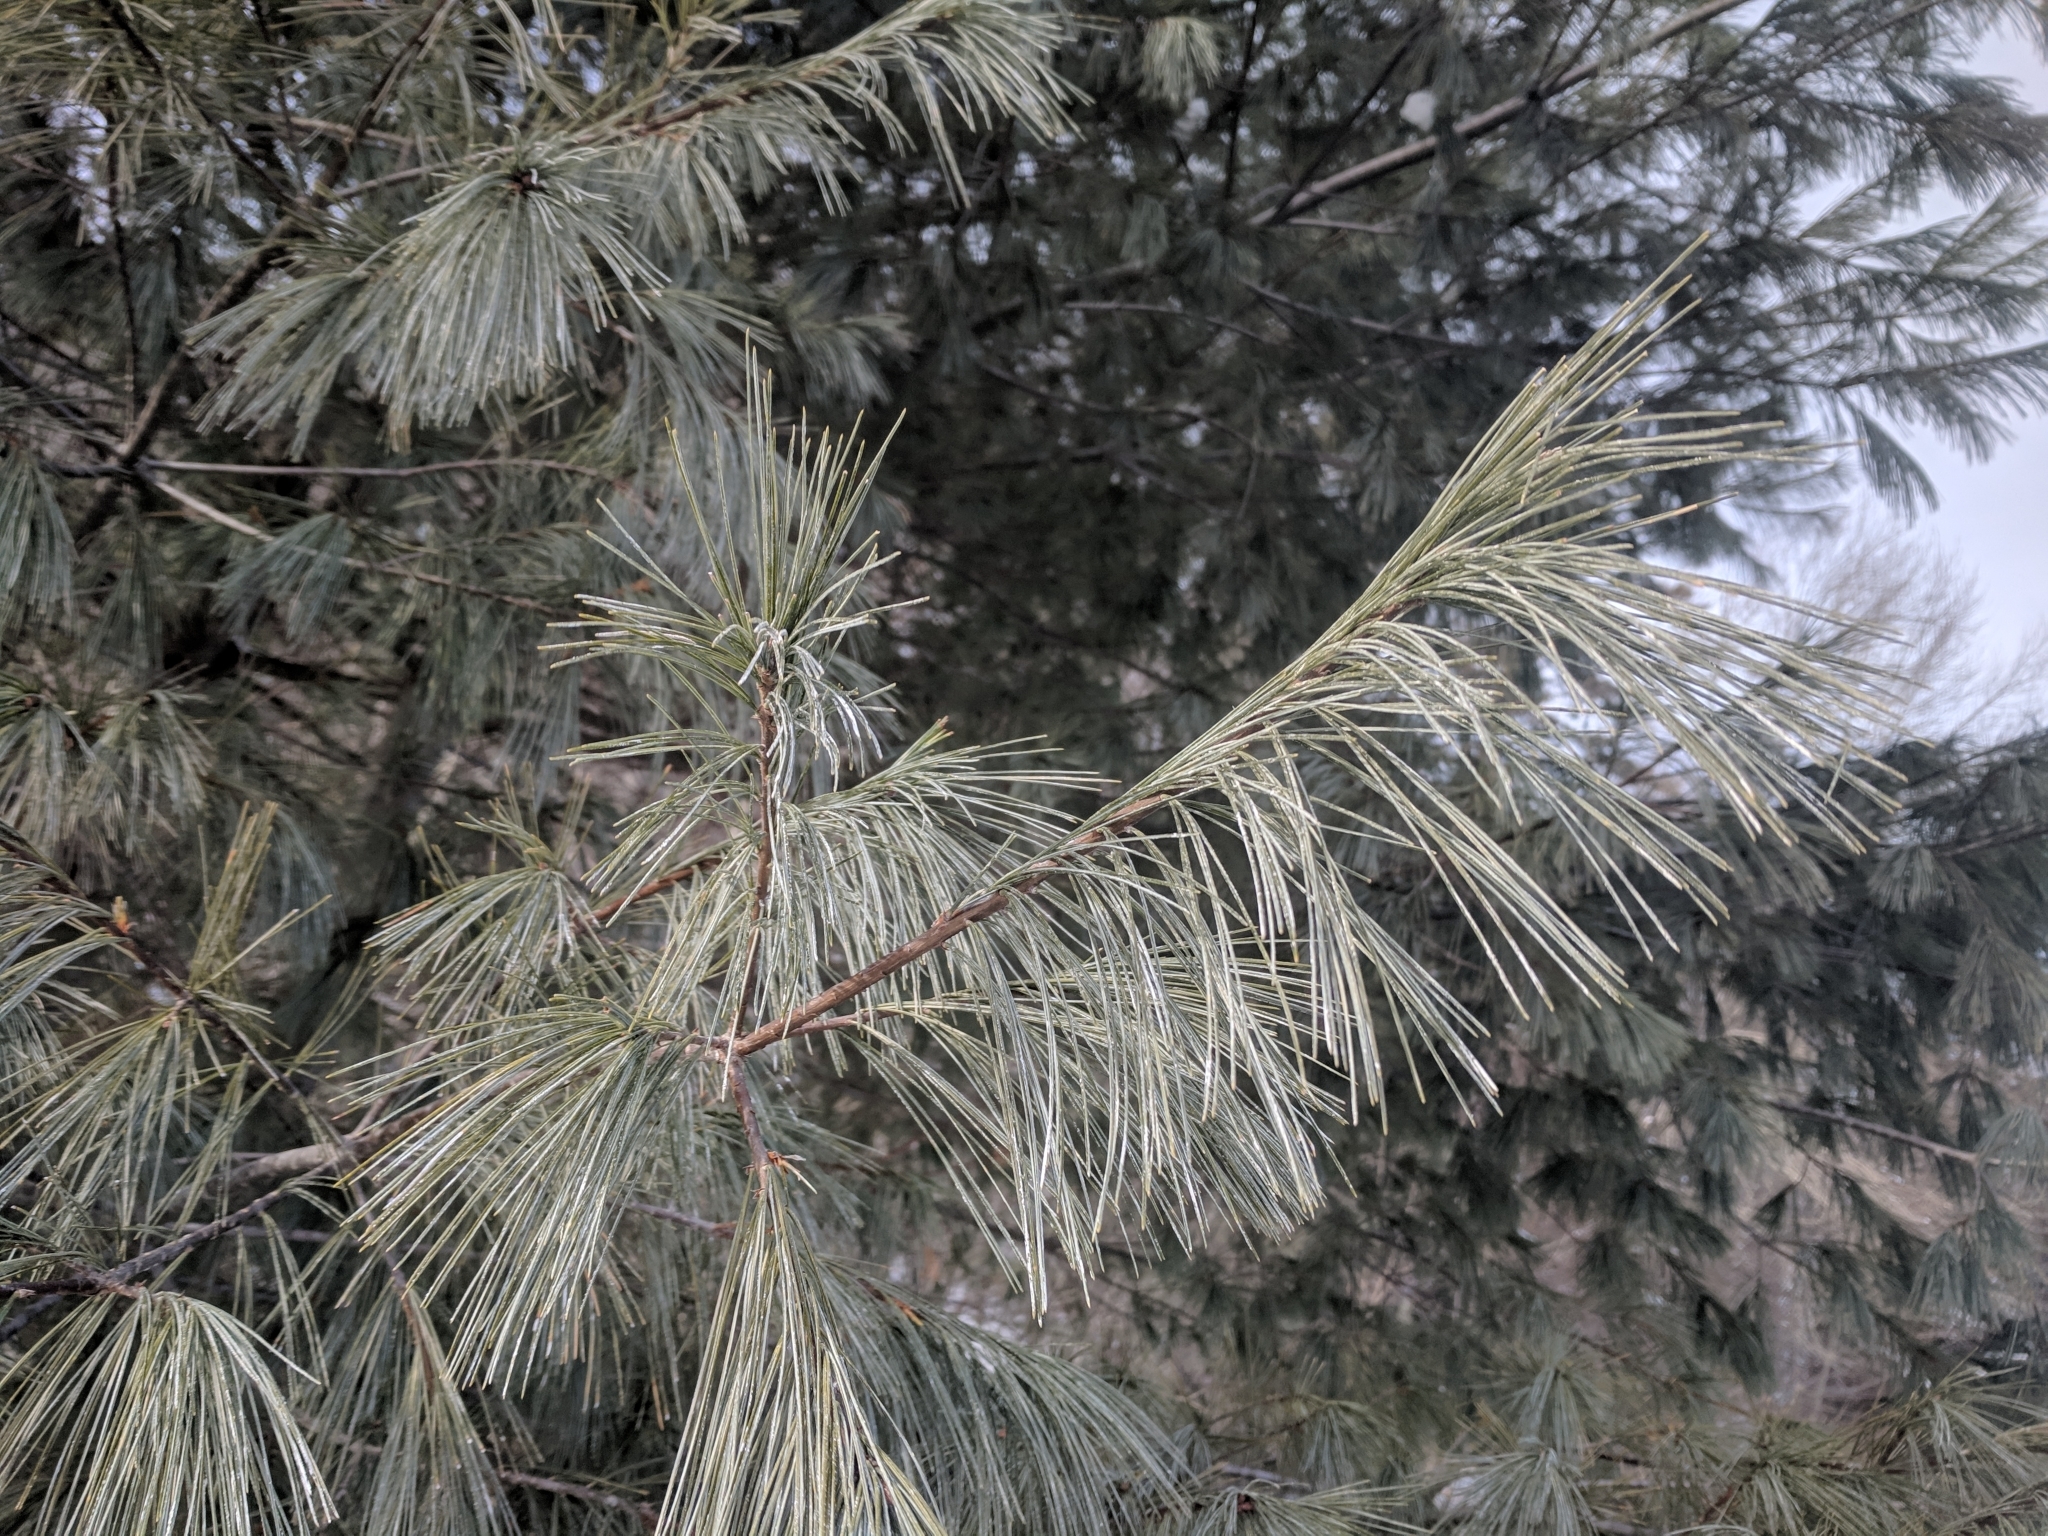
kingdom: Plantae
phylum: Tracheophyta
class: Pinopsida
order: Pinales
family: Pinaceae
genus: Pinus
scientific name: Pinus strobus
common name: Weymouth pine
